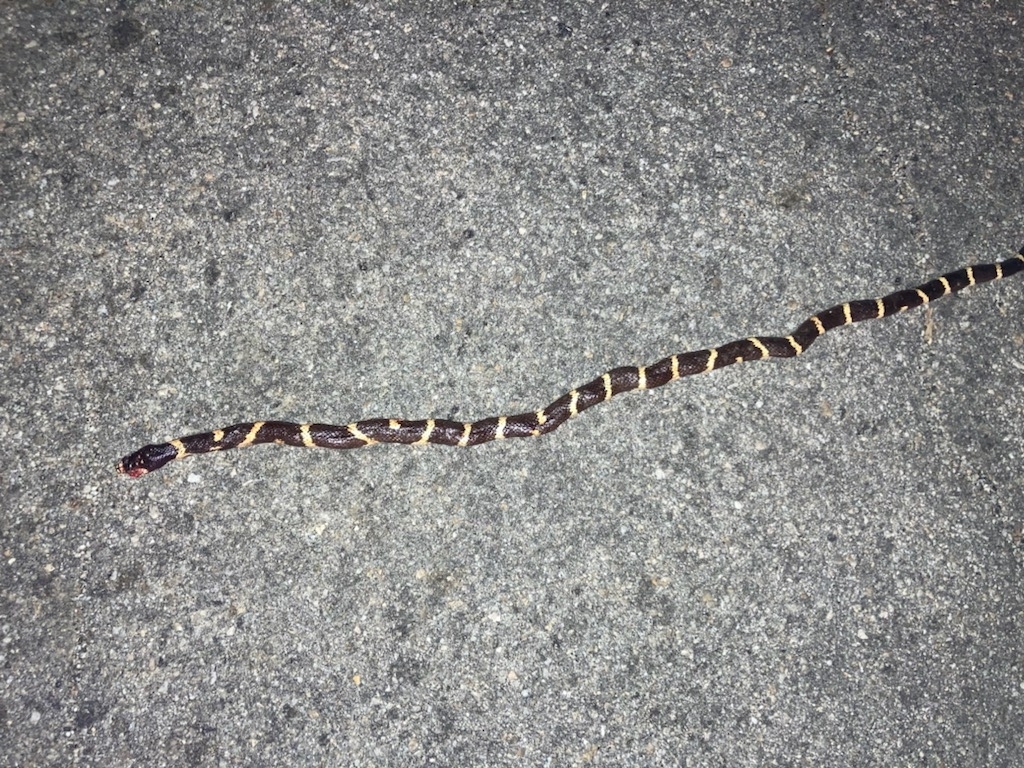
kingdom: Animalia
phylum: Chordata
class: Squamata
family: Colubridae
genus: Lampropeltis
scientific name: Lampropeltis californiae
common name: California kingsnake
